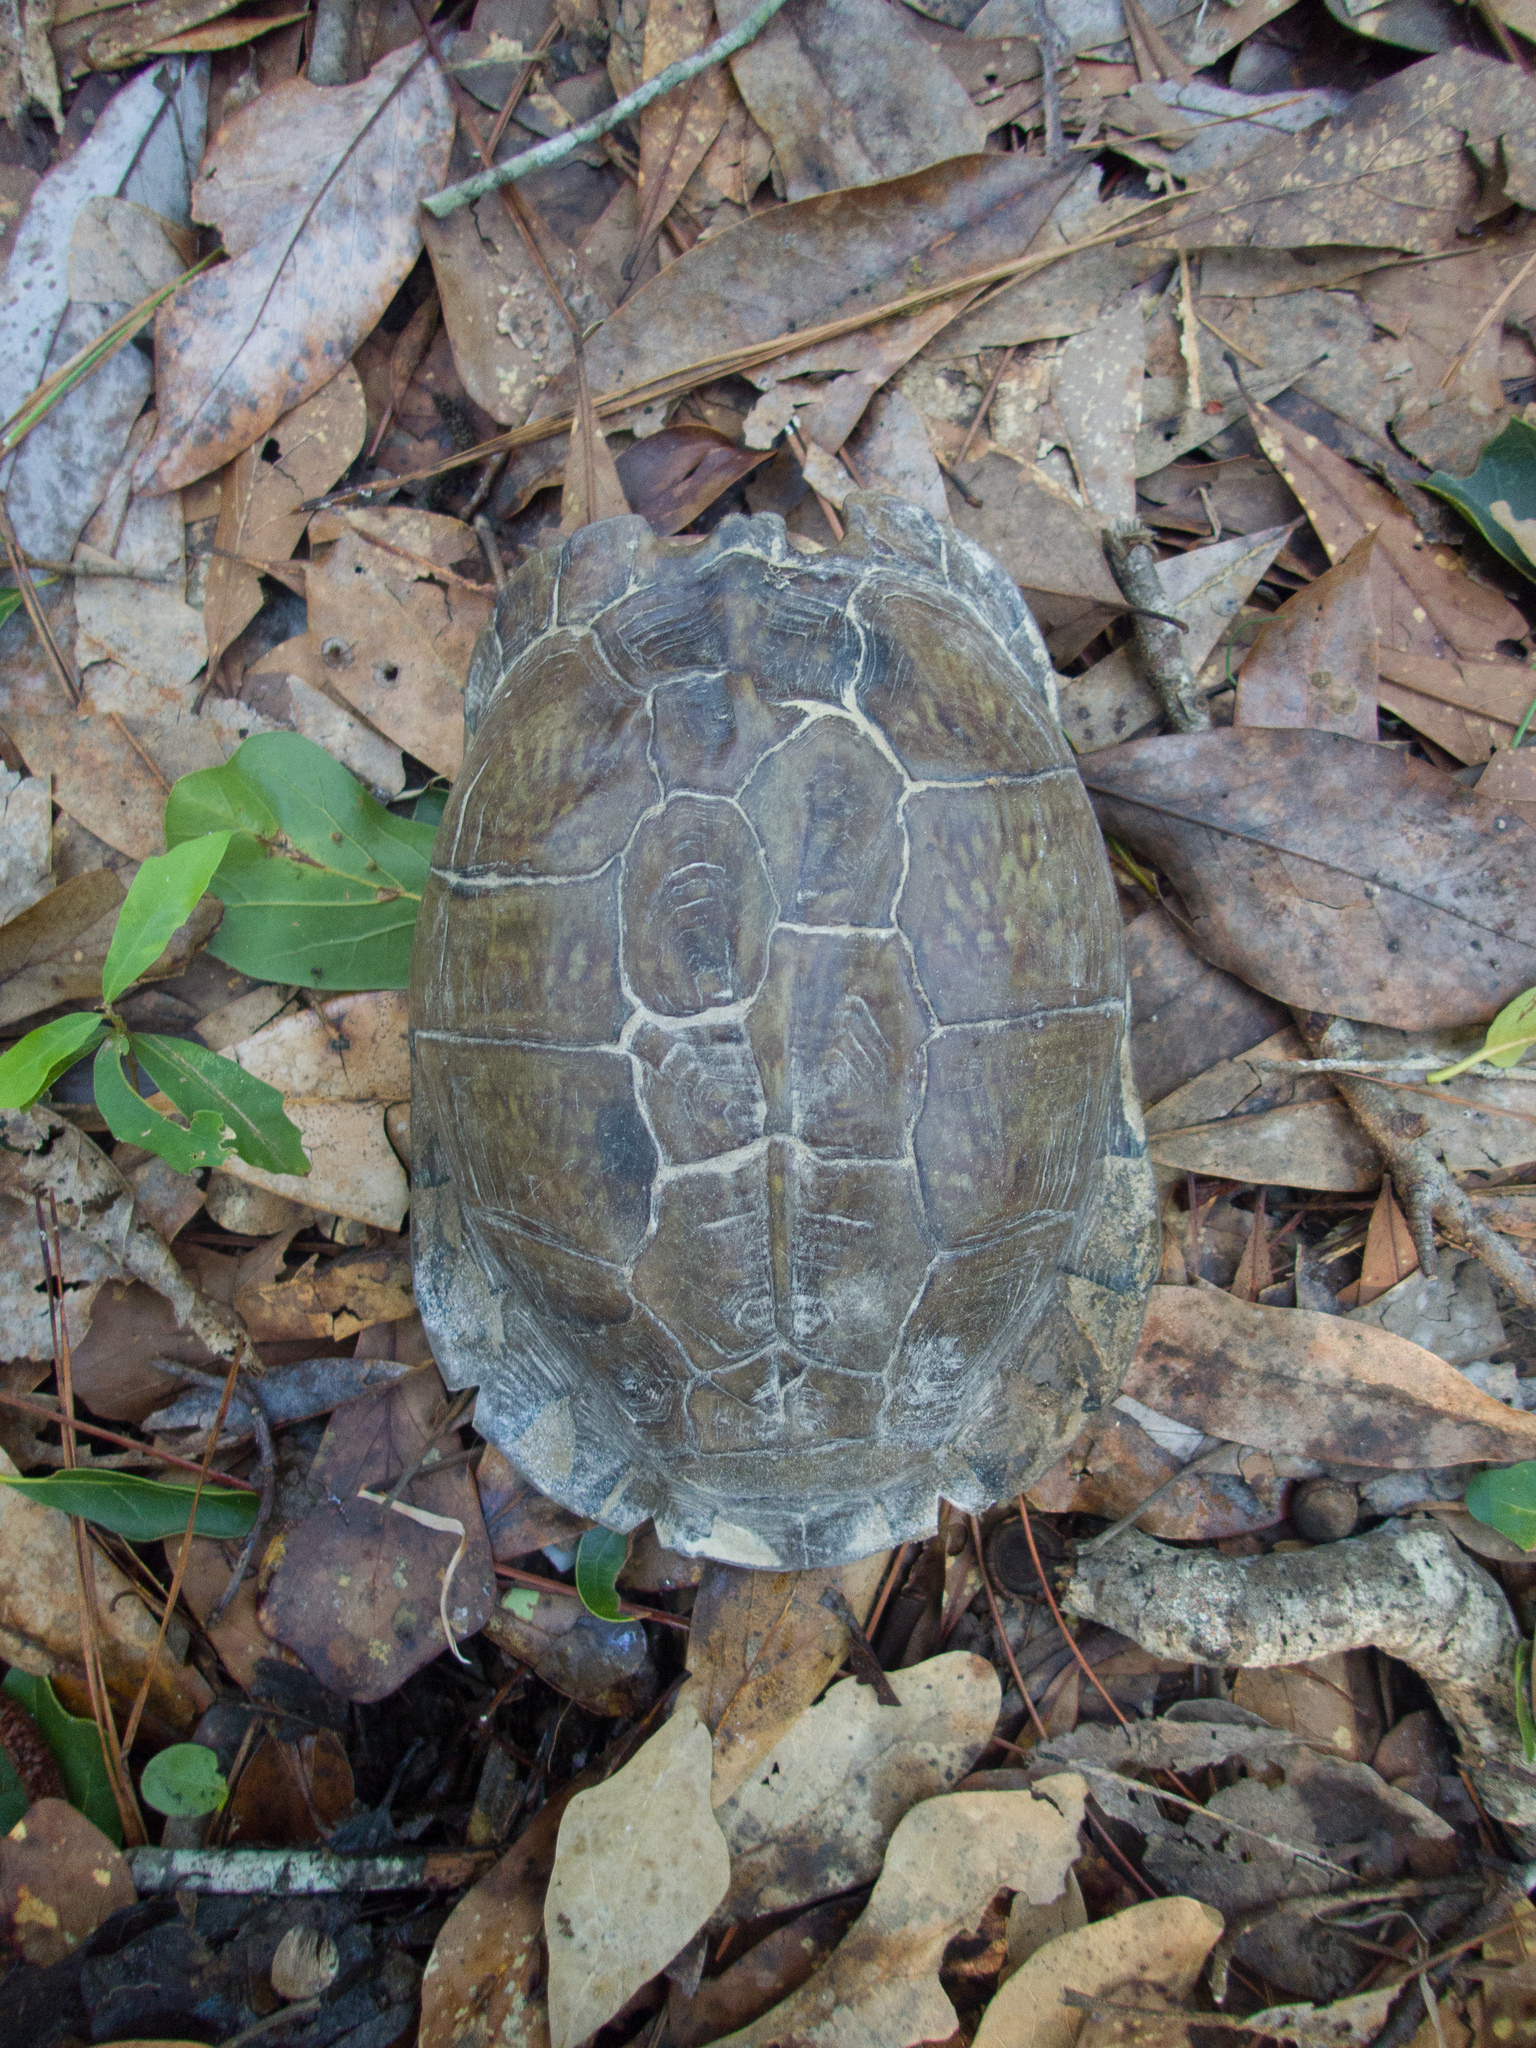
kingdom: Animalia
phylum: Chordata
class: Testudines
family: Emydidae
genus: Terrapene
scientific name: Terrapene carolina
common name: Common box turtle
